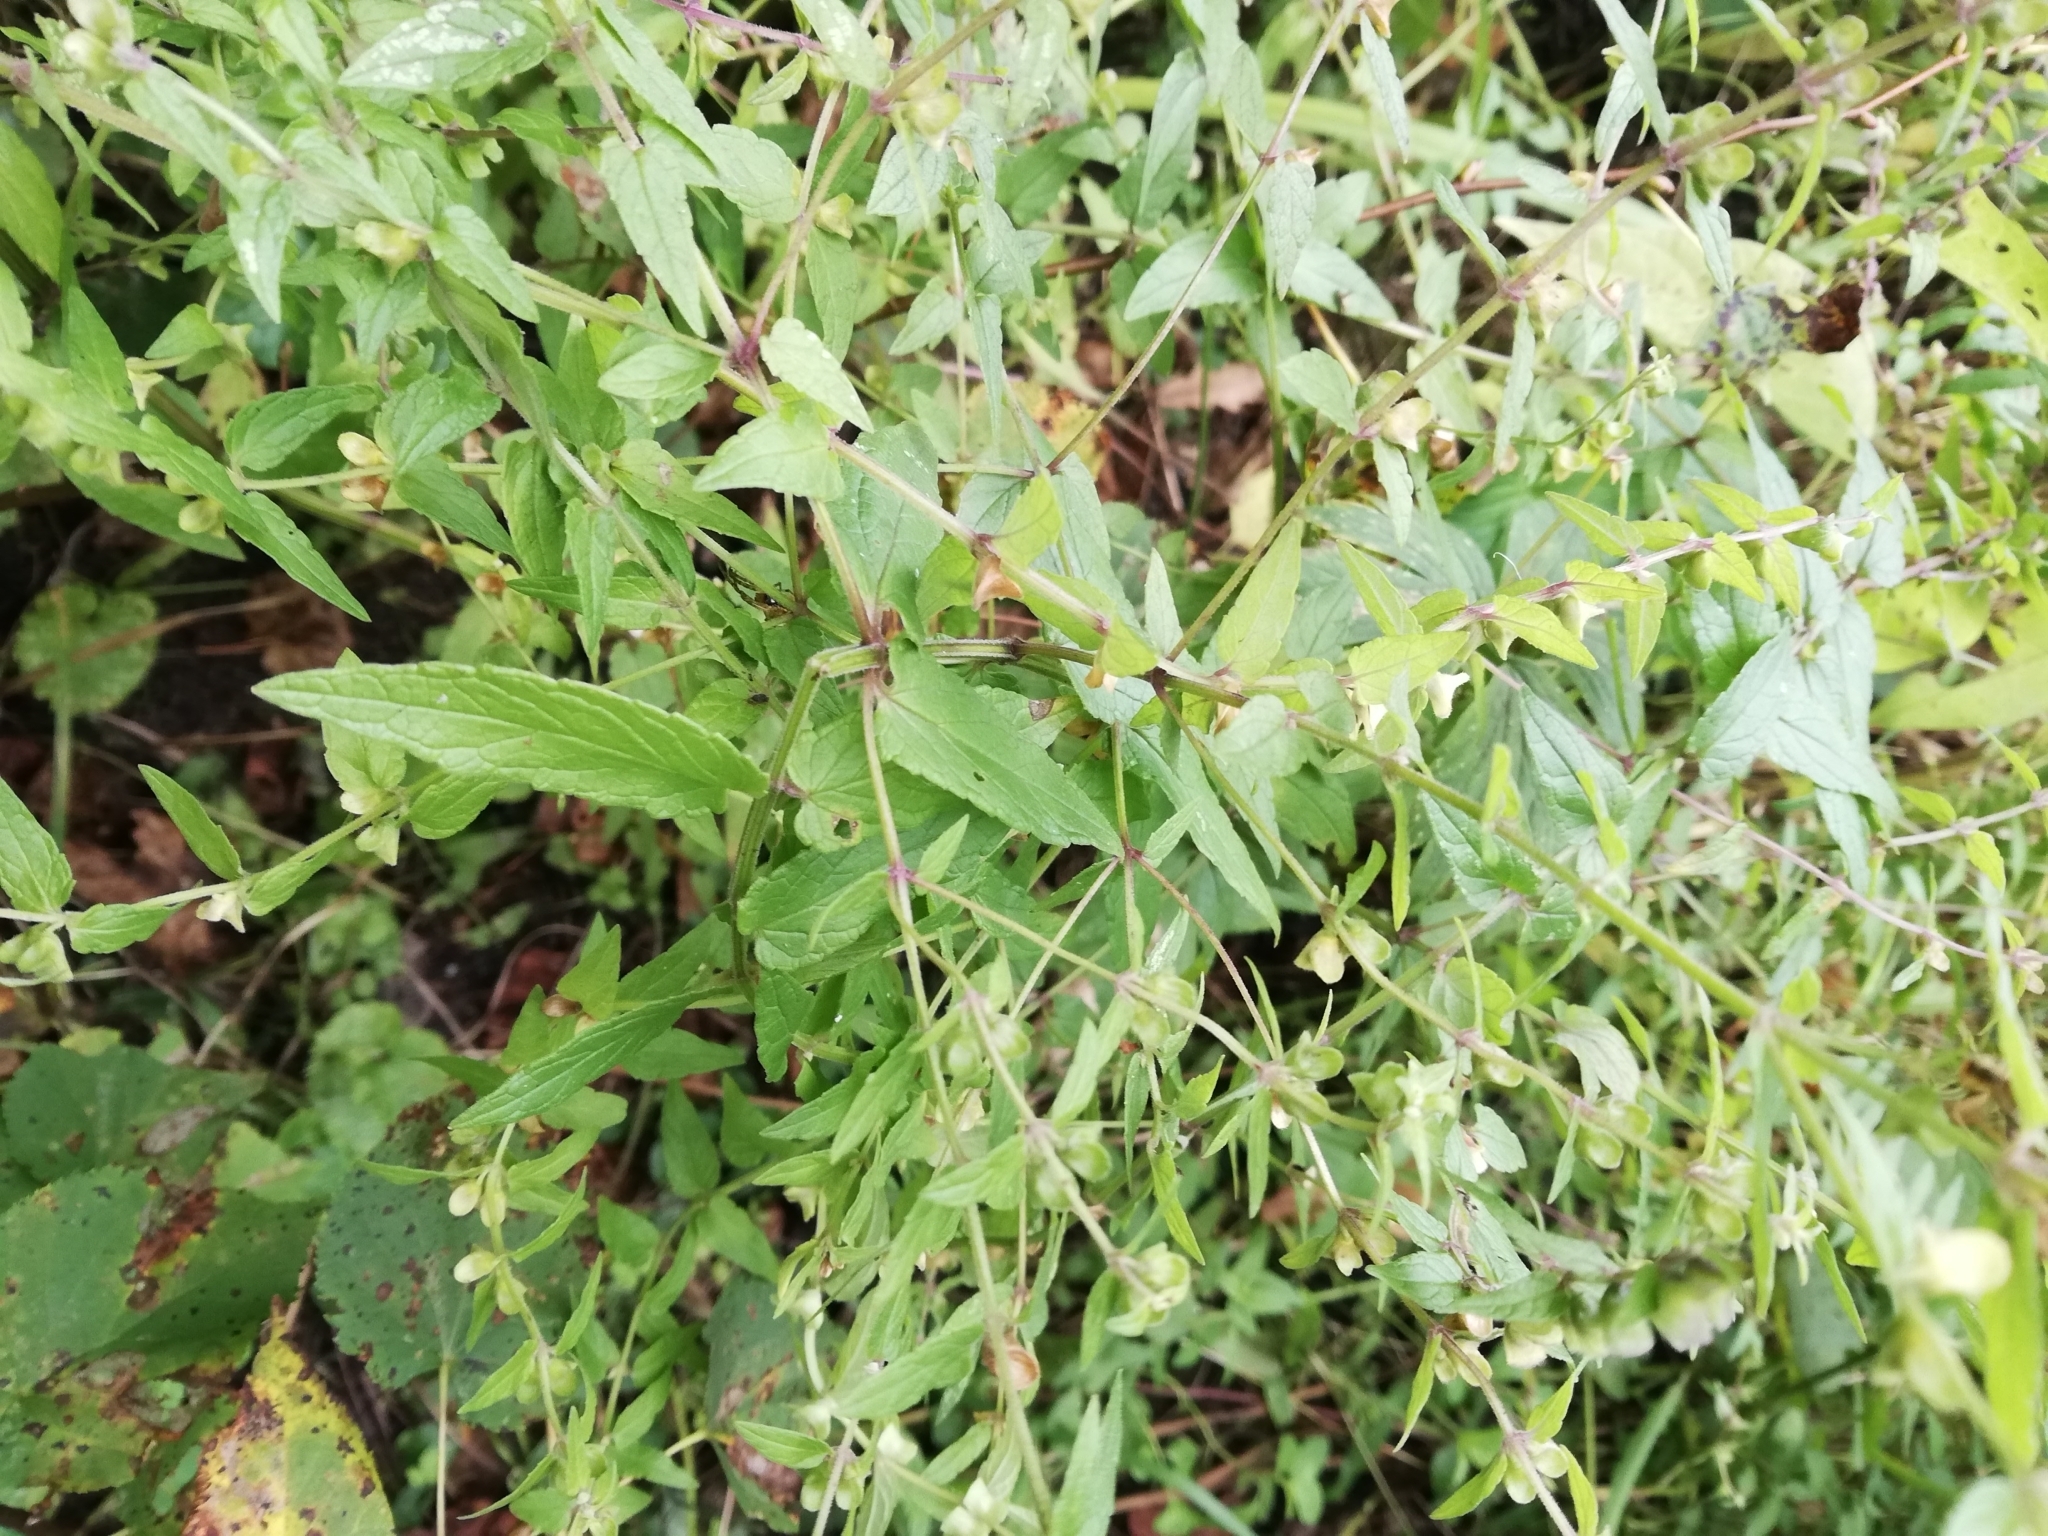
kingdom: Plantae
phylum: Tracheophyta
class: Magnoliopsida
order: Lamiales
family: Lamiaceae
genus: Scutellaria
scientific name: Scutellaria galericulata
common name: Skullcap
